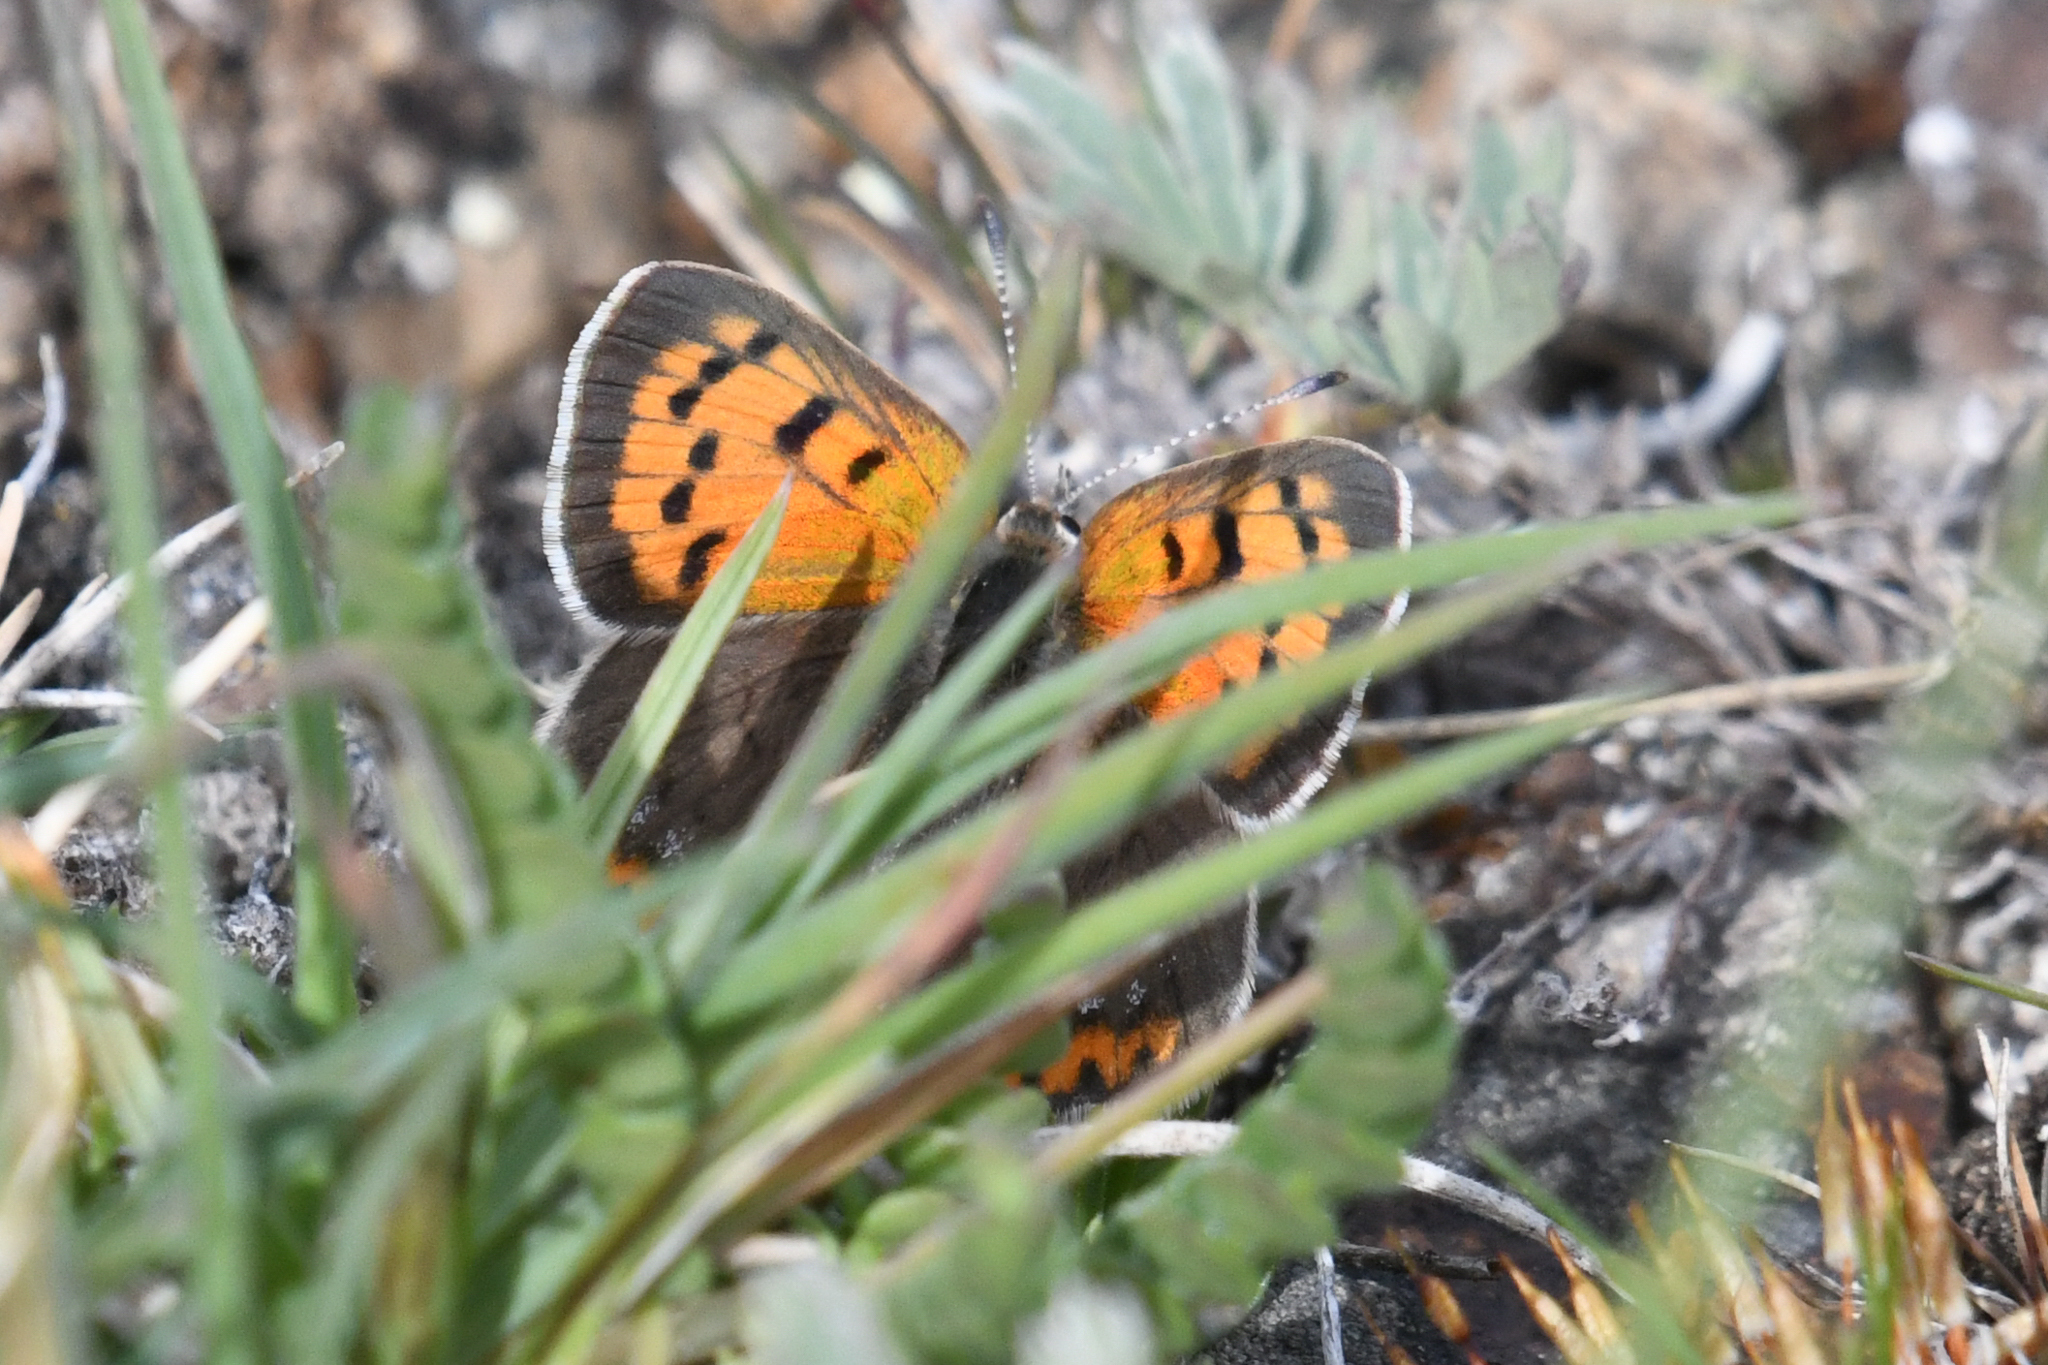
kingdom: Animalia
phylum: Arthropoda
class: Insecta
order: Lepidoptera
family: Lycaenidae
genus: Lycaena
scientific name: Lycaena hypophlaeas
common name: American copper
